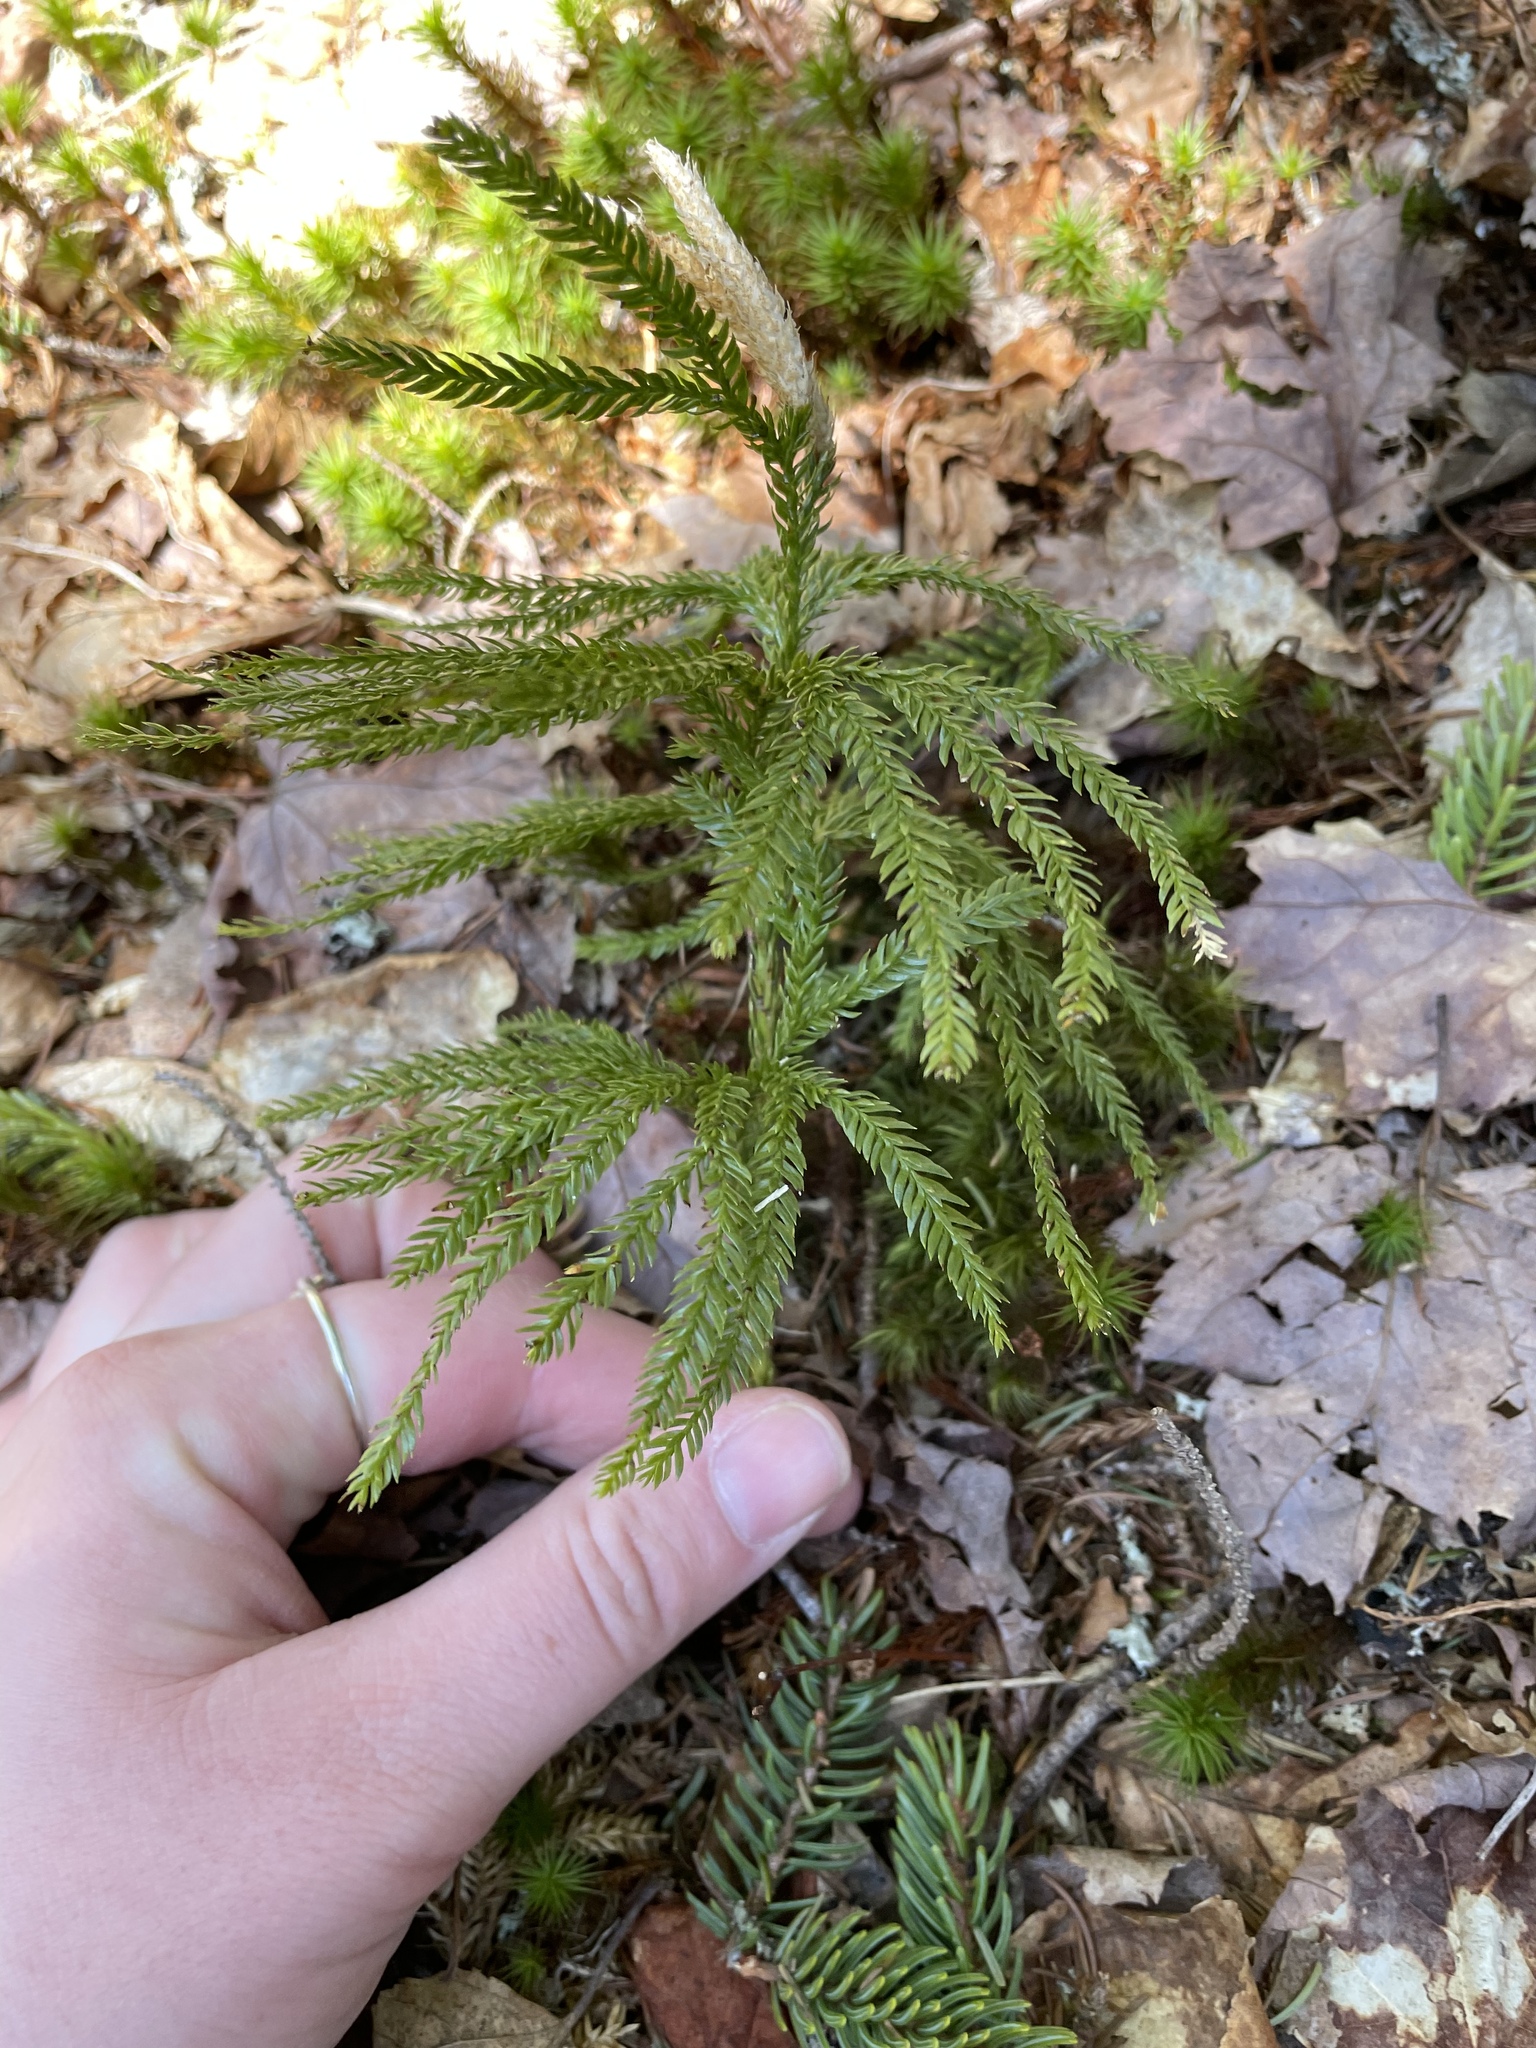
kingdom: Plantae
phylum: Tracheophyta
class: Lycopodiopsida
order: Lycopodiales
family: Lycopodiaceae
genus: Dendrolycopodium
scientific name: Dendrolycopodium obscurum
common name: Common ground-pine
